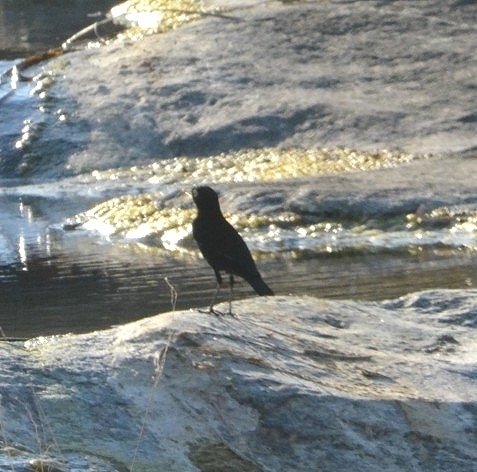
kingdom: Animalia
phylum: Chordata
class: Aves
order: Passeriformes
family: Tyrannidae
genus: Hymenops
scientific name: Hymenops perspicillatus
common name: Spectacled tyrant
